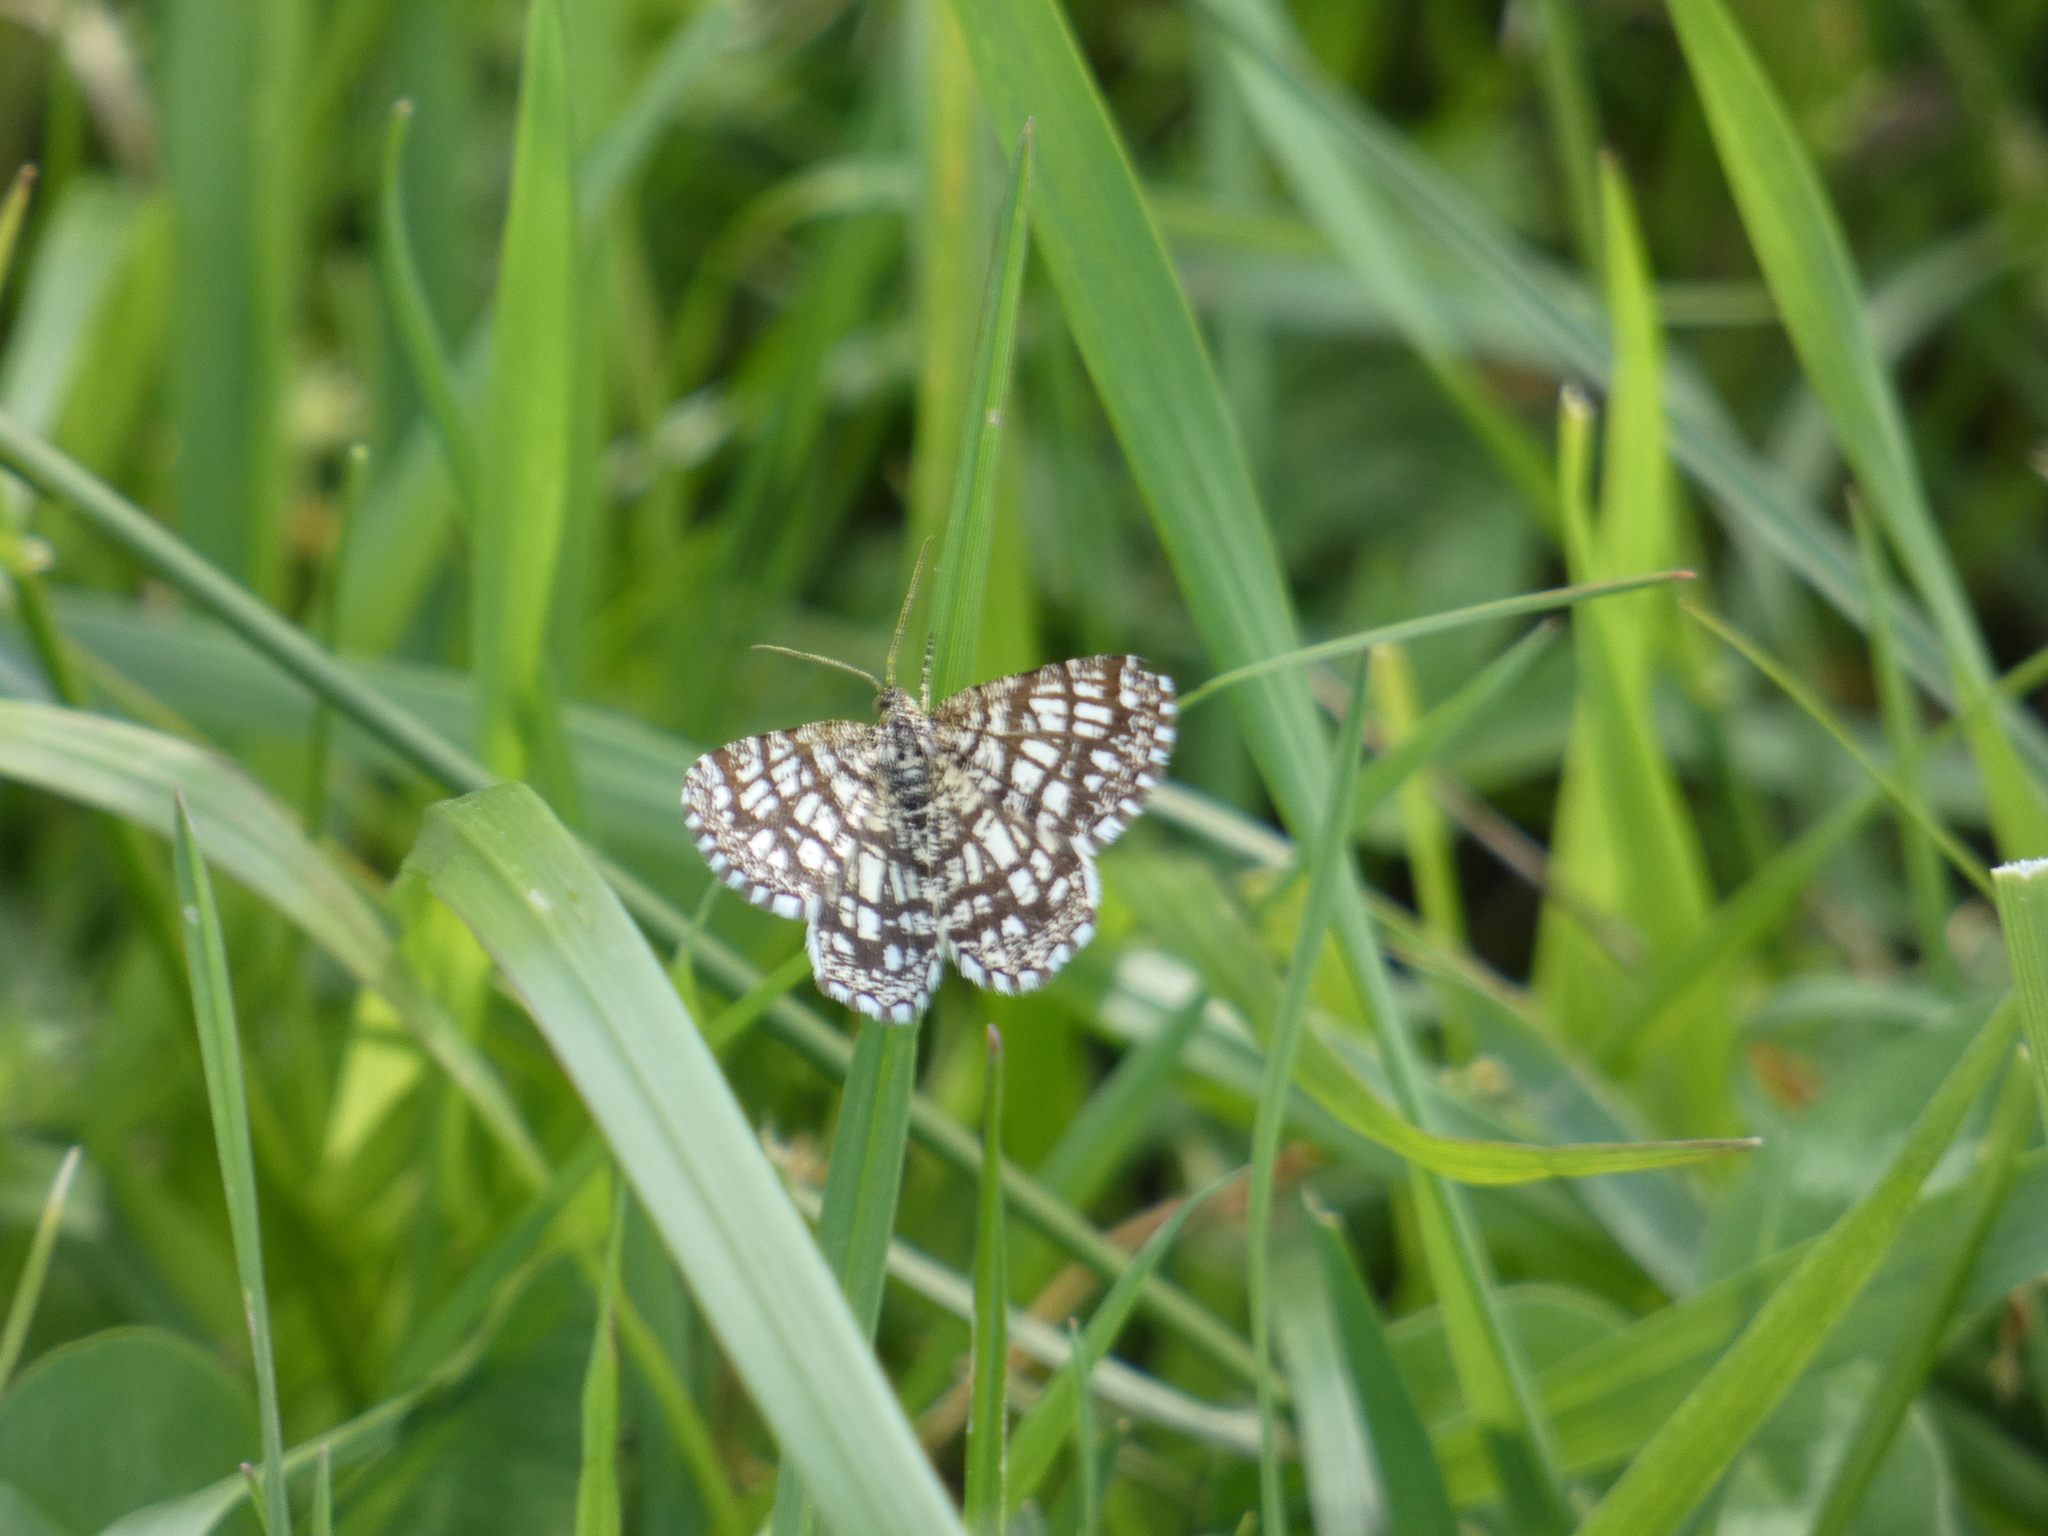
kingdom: Animalia
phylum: Arthropoda
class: Insecta
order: Lepidoptera
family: Geometridae
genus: Chiasmia
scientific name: Chiasmia clathrata
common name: Latticed heath
